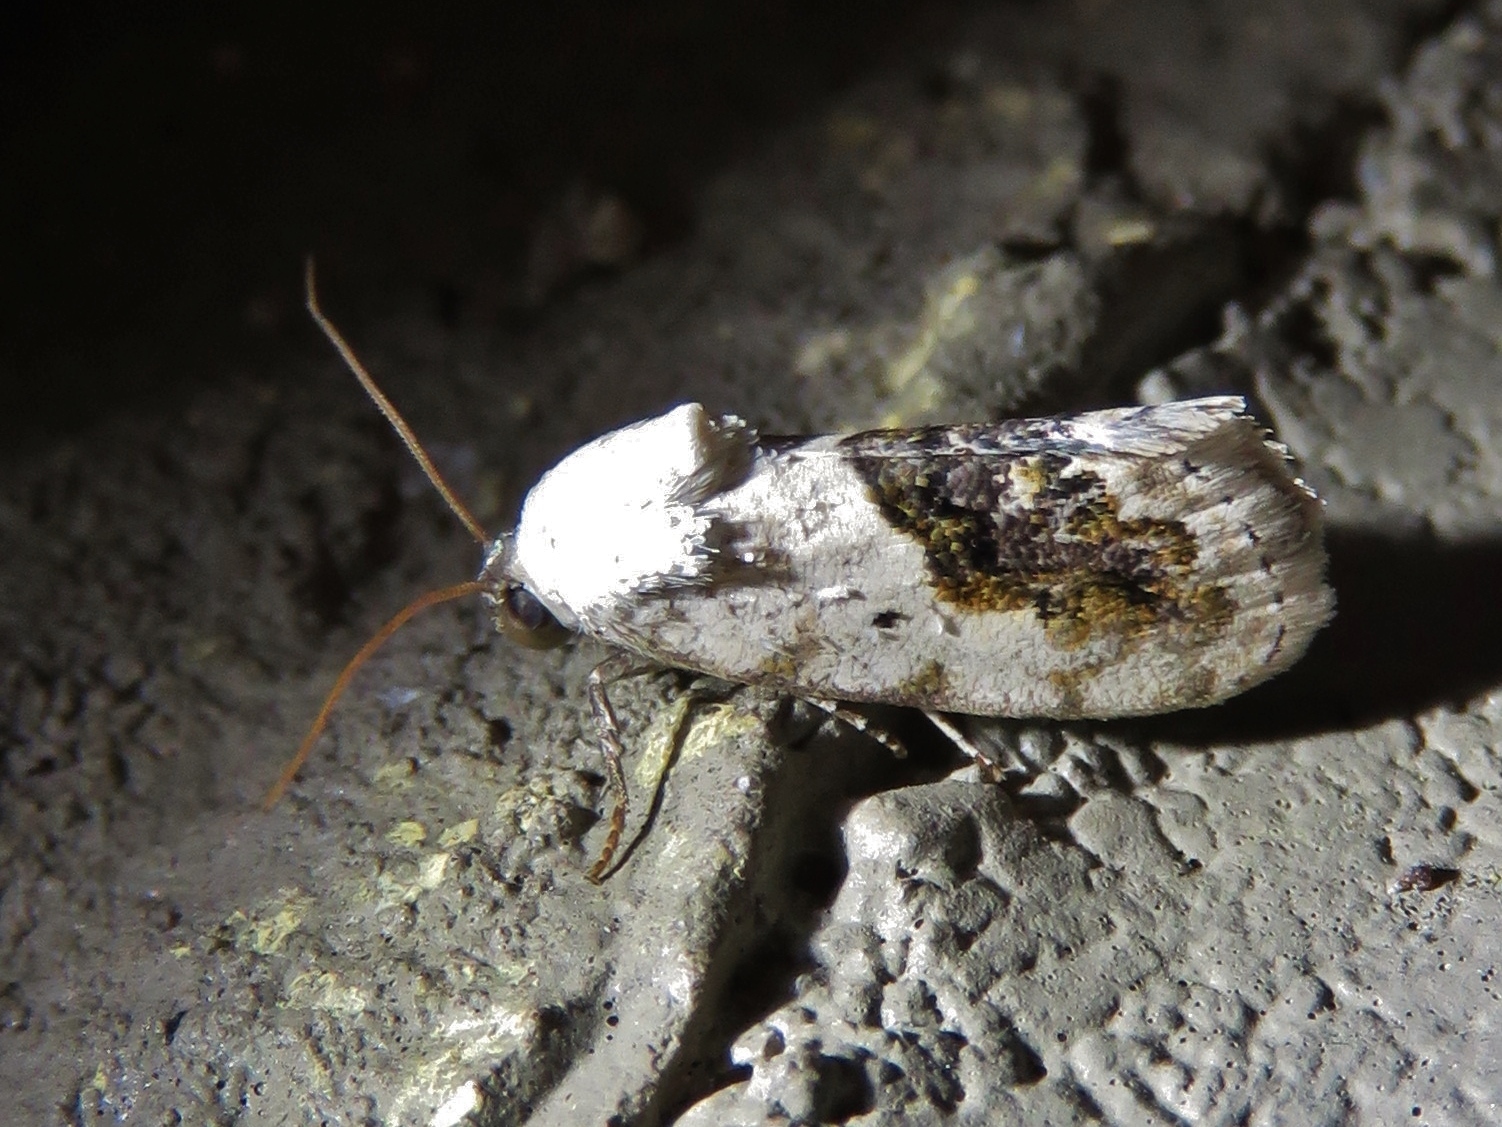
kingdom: Animalia
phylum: Arthropoda
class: Insecta
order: Lepidoptera
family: Noctuidae
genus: Acontia
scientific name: Acontia erastrioides
